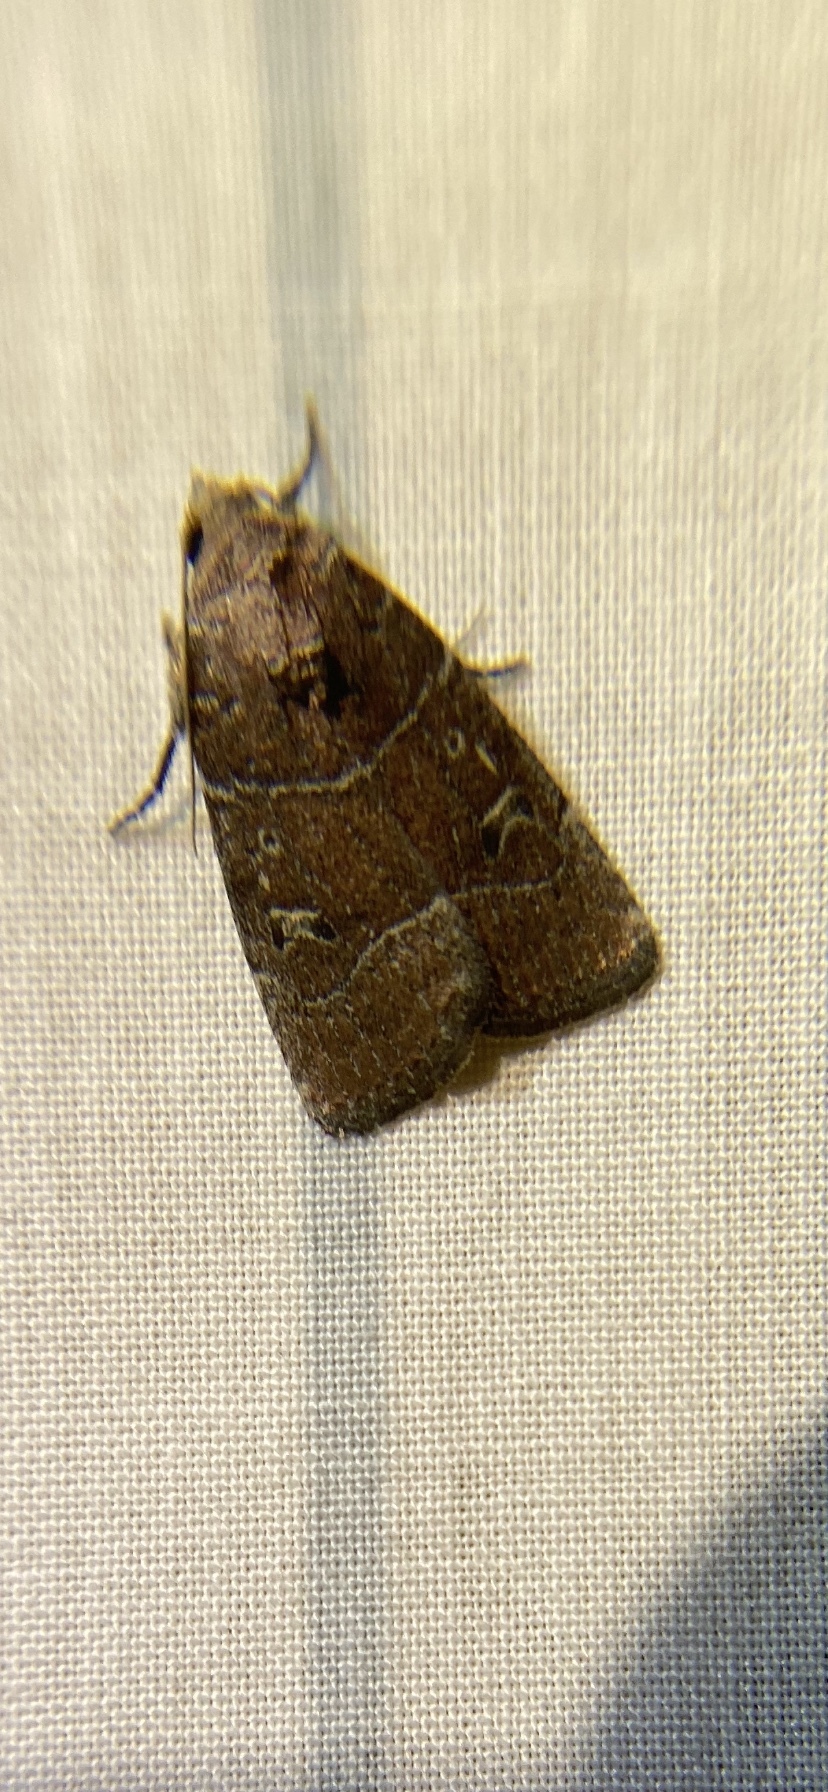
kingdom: Animalia
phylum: Arthropoda
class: Insecta
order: Lepidoptera
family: Noctuidae
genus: Elaphria
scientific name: Elaphria grata
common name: Grateful midget moth
